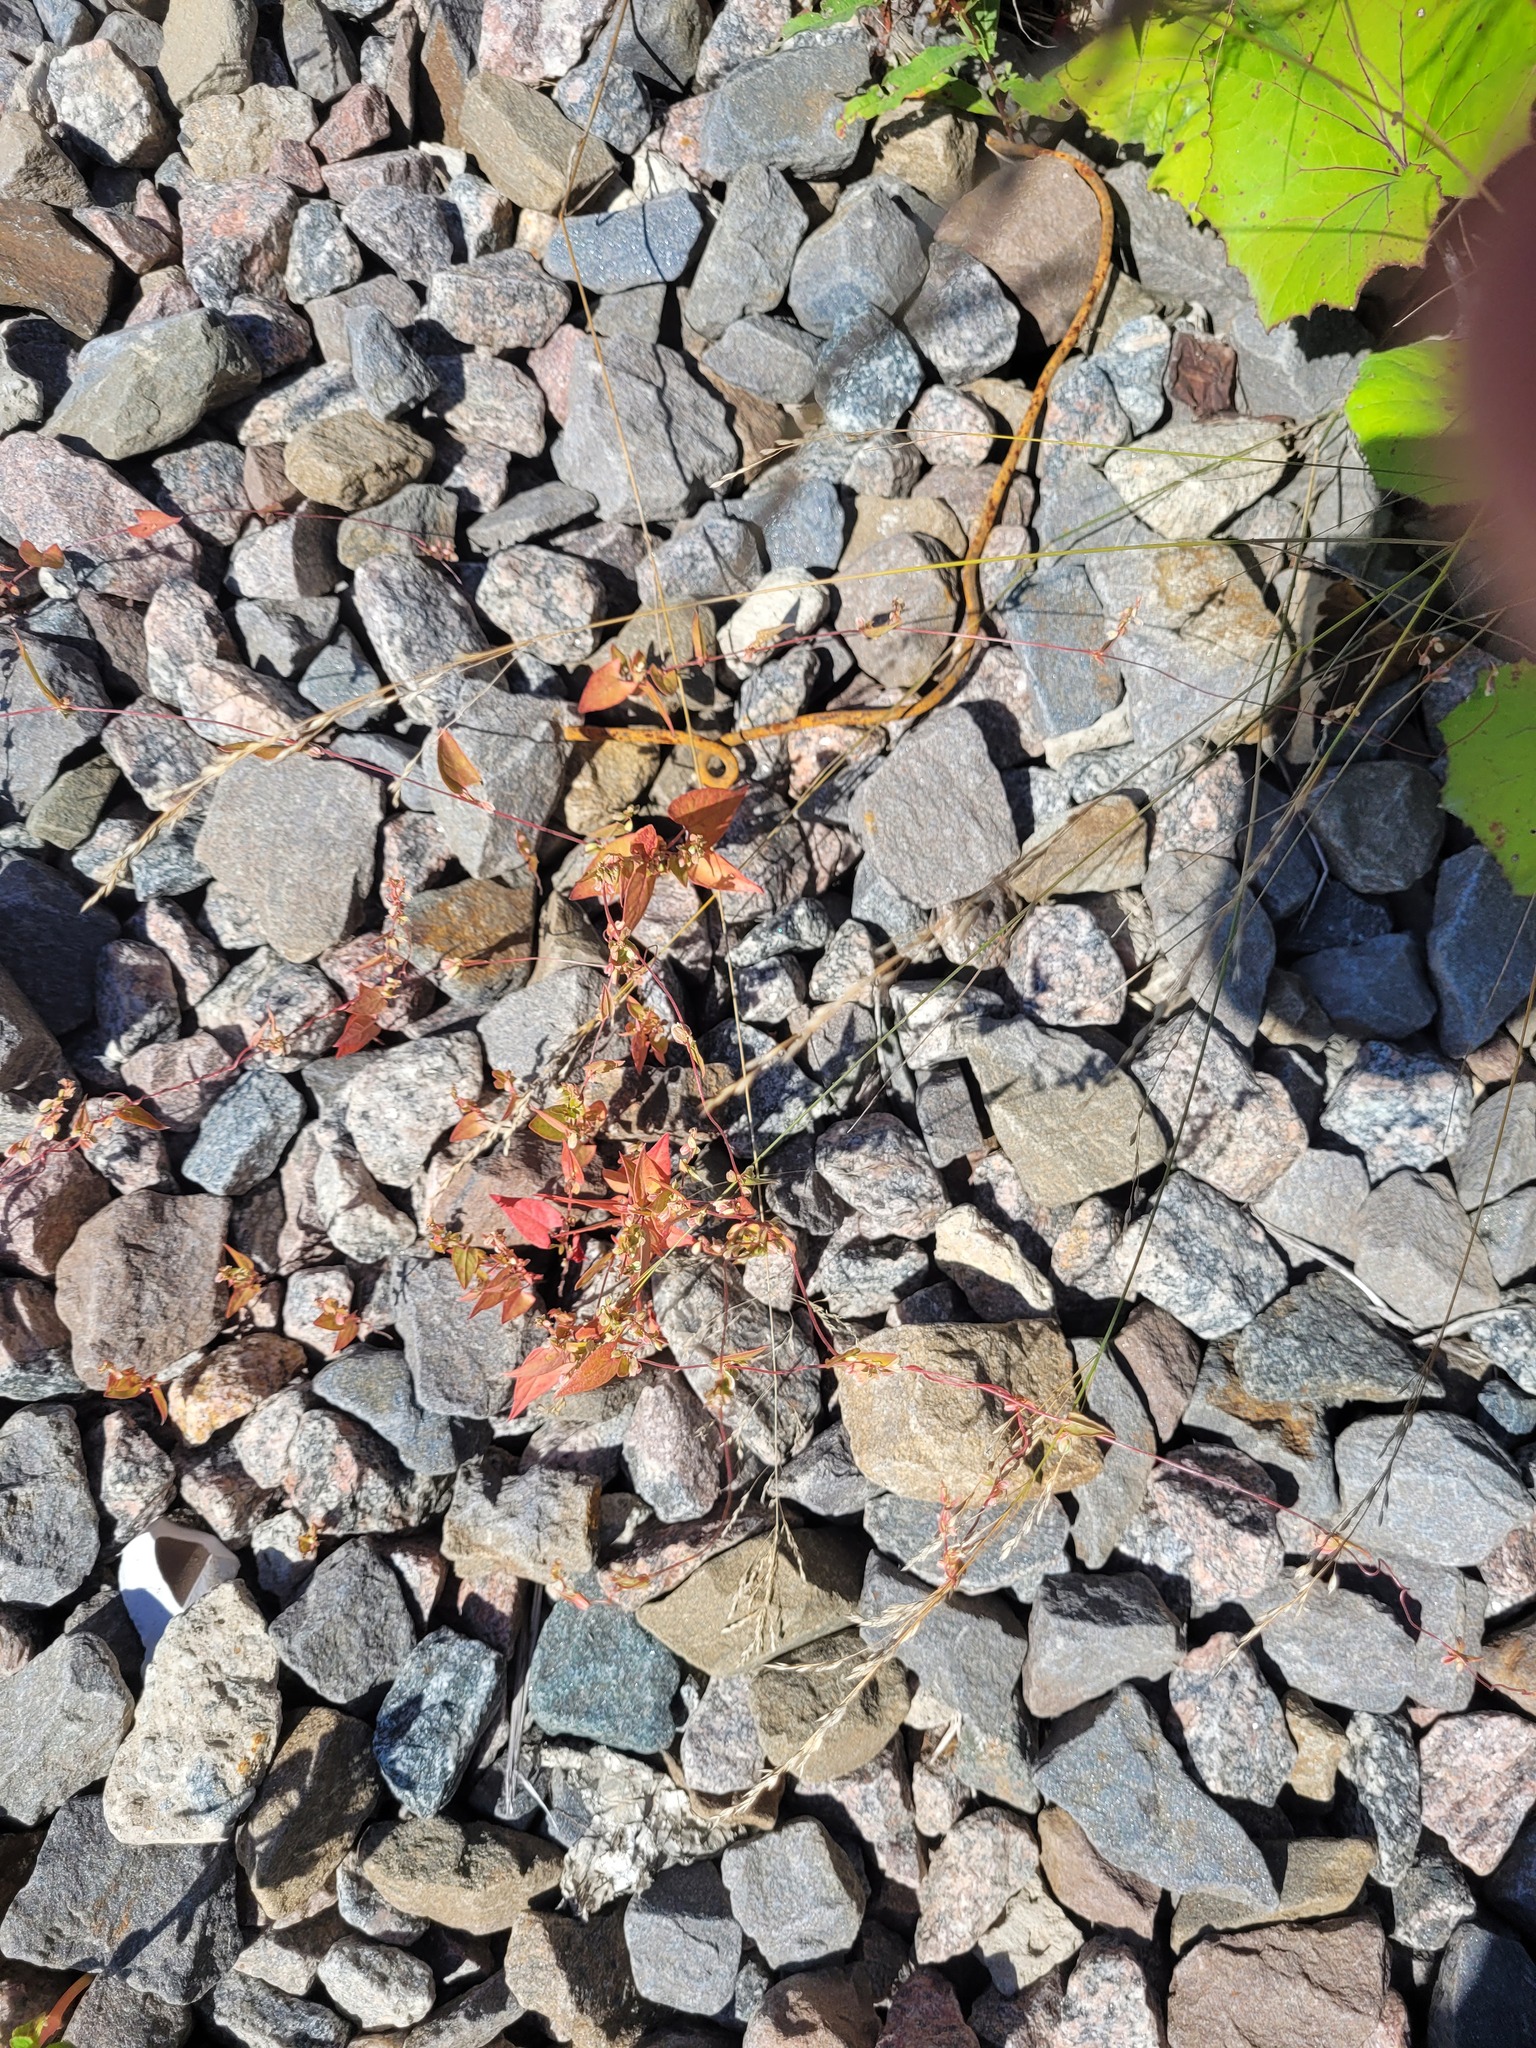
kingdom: Plantae
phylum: Tracheophyta
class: Magnoliopsida
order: Caryophyllales
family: Polygonaceae
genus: Fallopia
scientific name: Fallopia convolvulus
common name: Black bindweed
